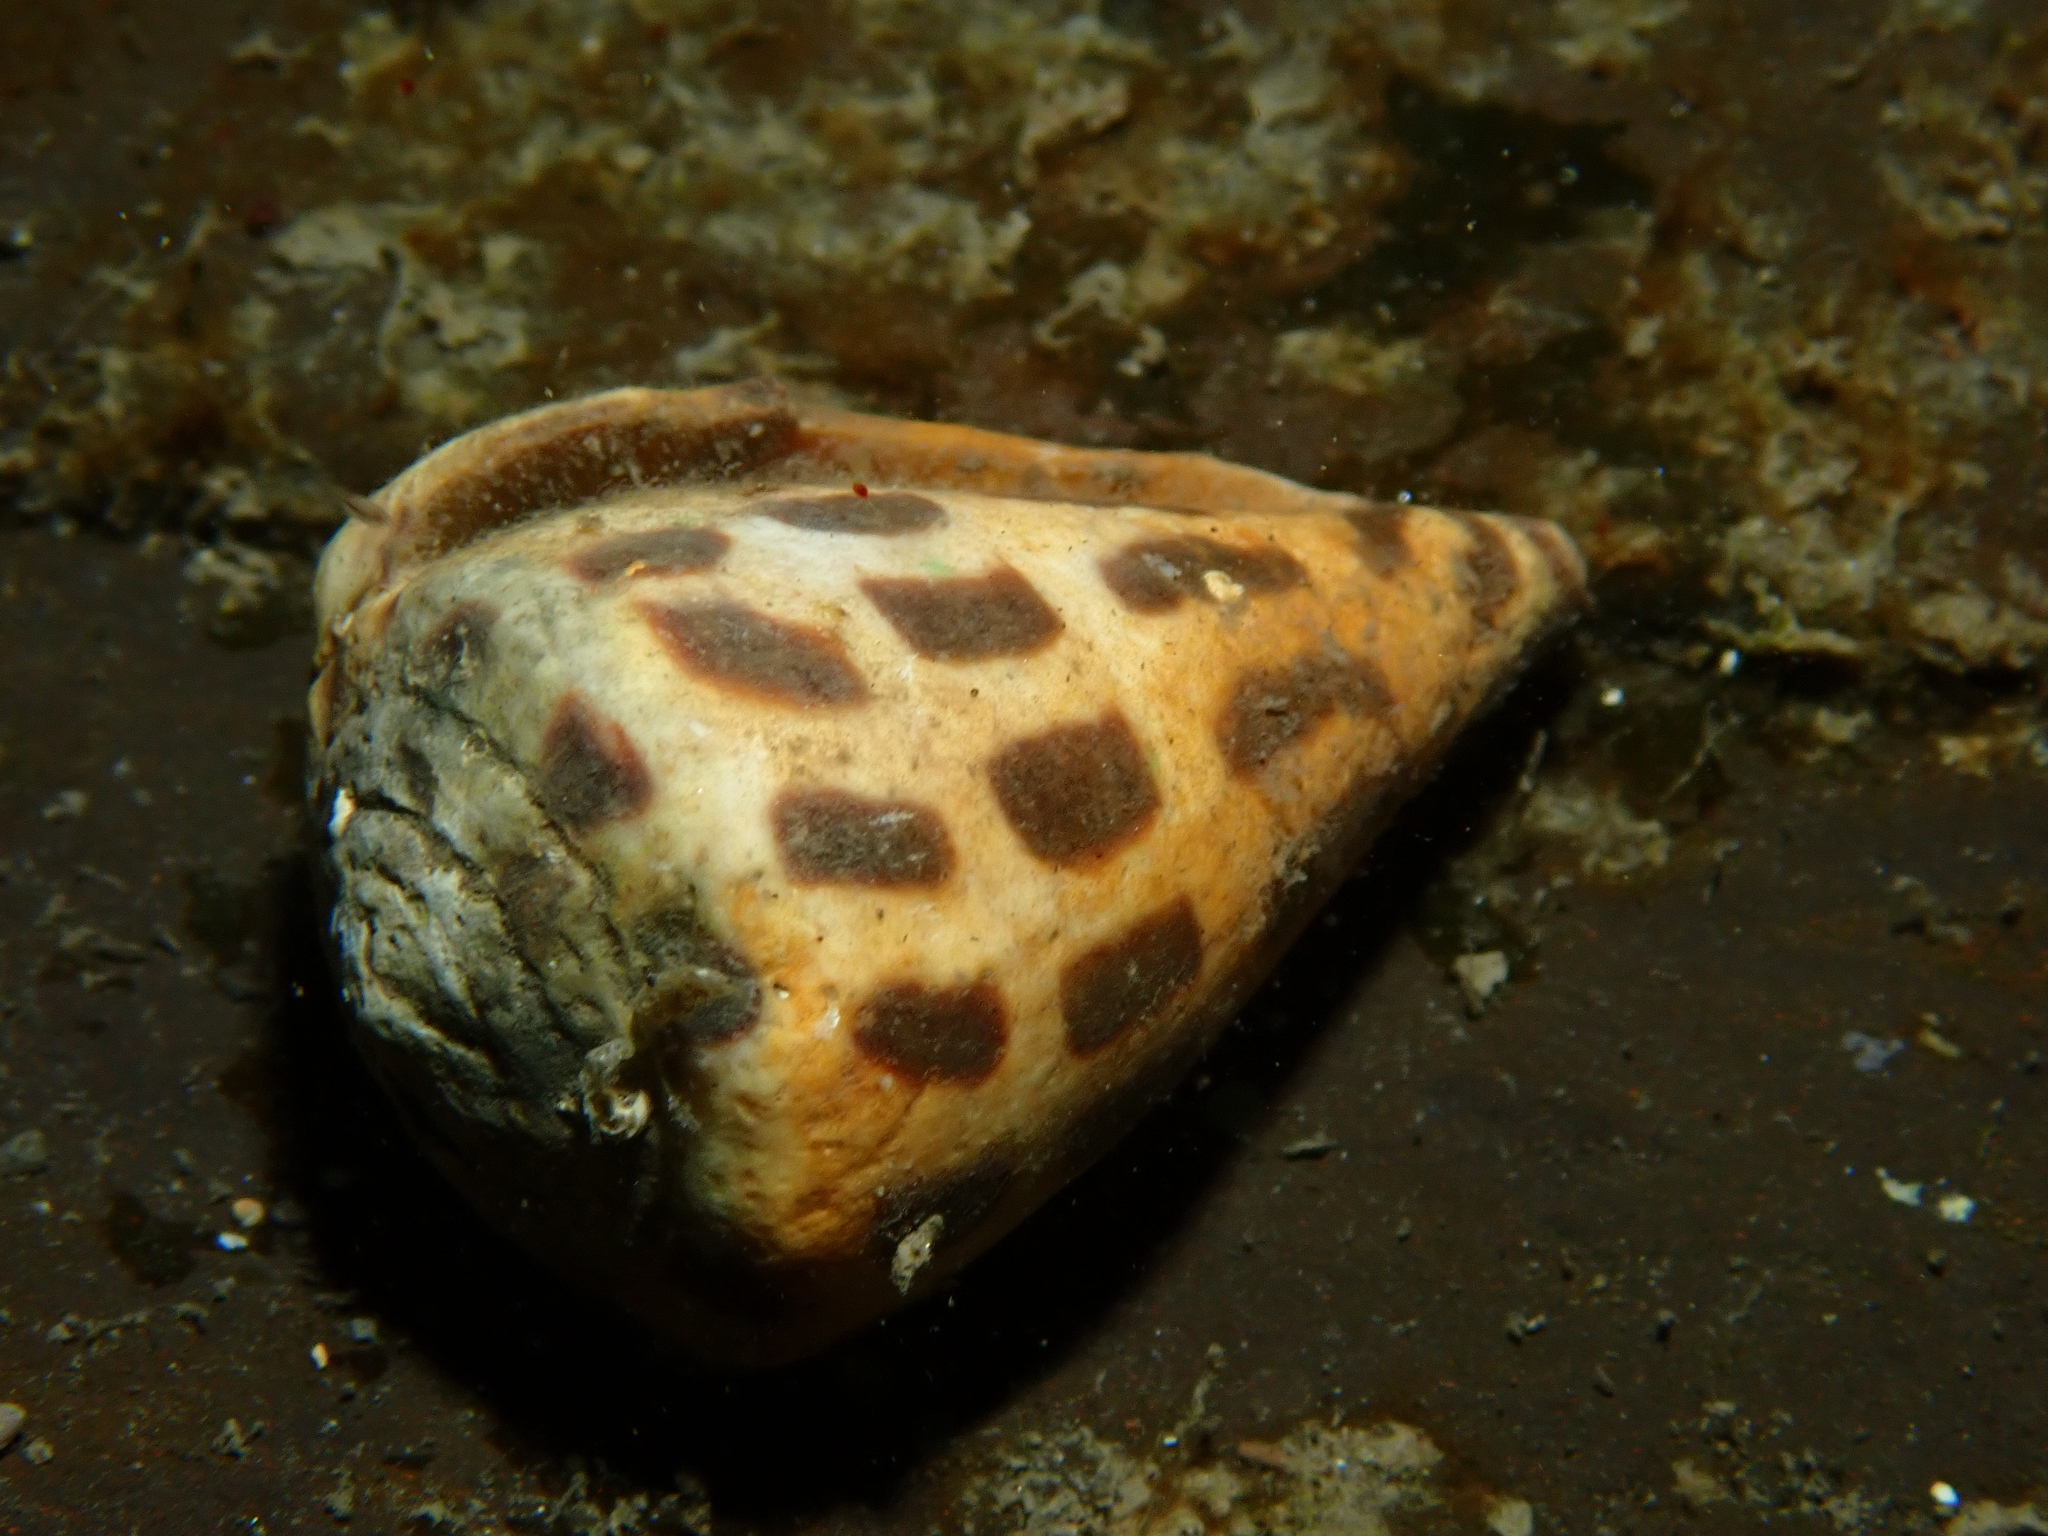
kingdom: Animalia
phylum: Mollusca
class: Gastropoda
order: Neogastropoda
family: Conidae
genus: Conus
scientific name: Conus ebraeus
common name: Hebrew cone
